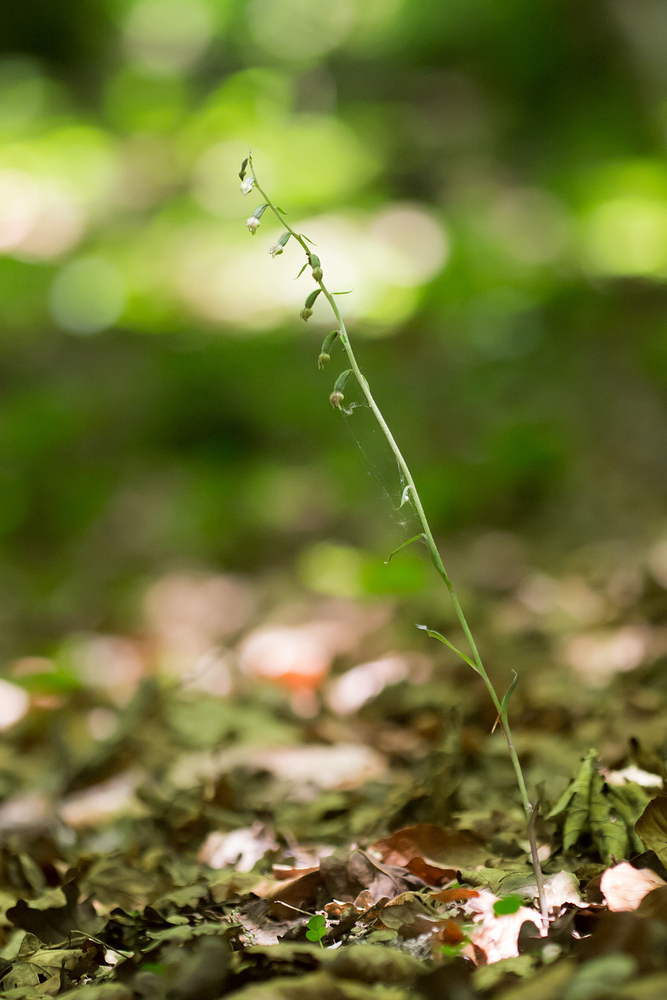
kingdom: Plantae
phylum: Tracheophyta
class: Liliopsida
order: Asparagales
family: Orchidaceae
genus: Epipactis
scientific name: Epipactis microphylla
